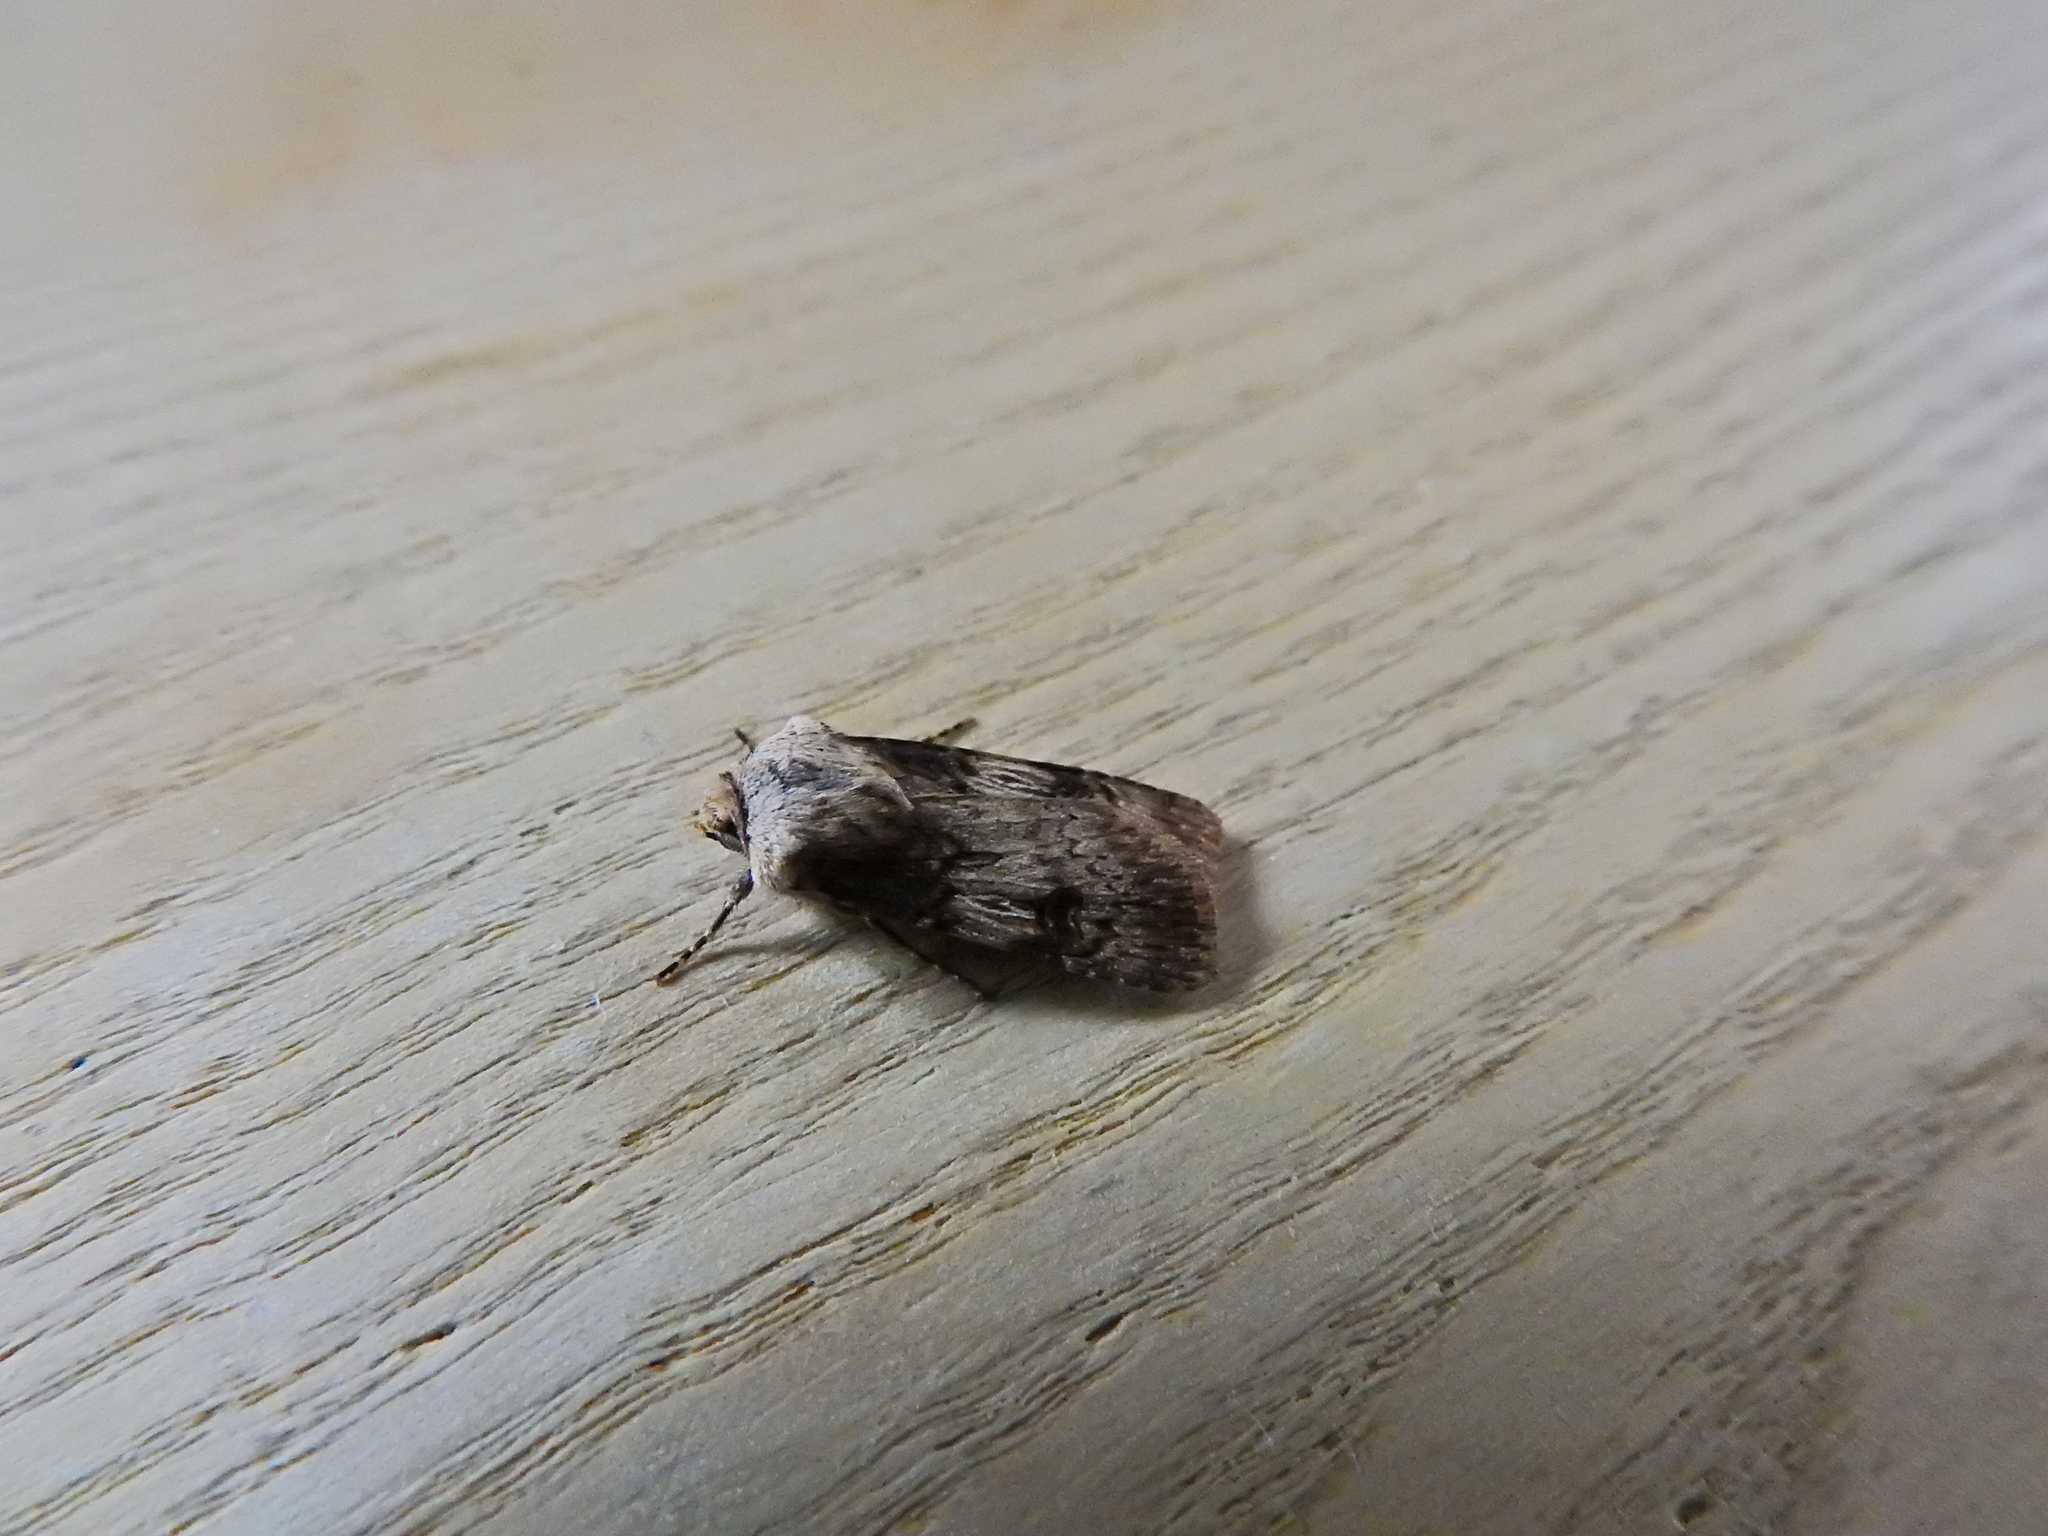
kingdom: Animalia
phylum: Arthropoda
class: Insecta
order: Lepidoptera
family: Noctuidae
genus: Agrotis
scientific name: Agrotis puta
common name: Shuttle-shaped dart
